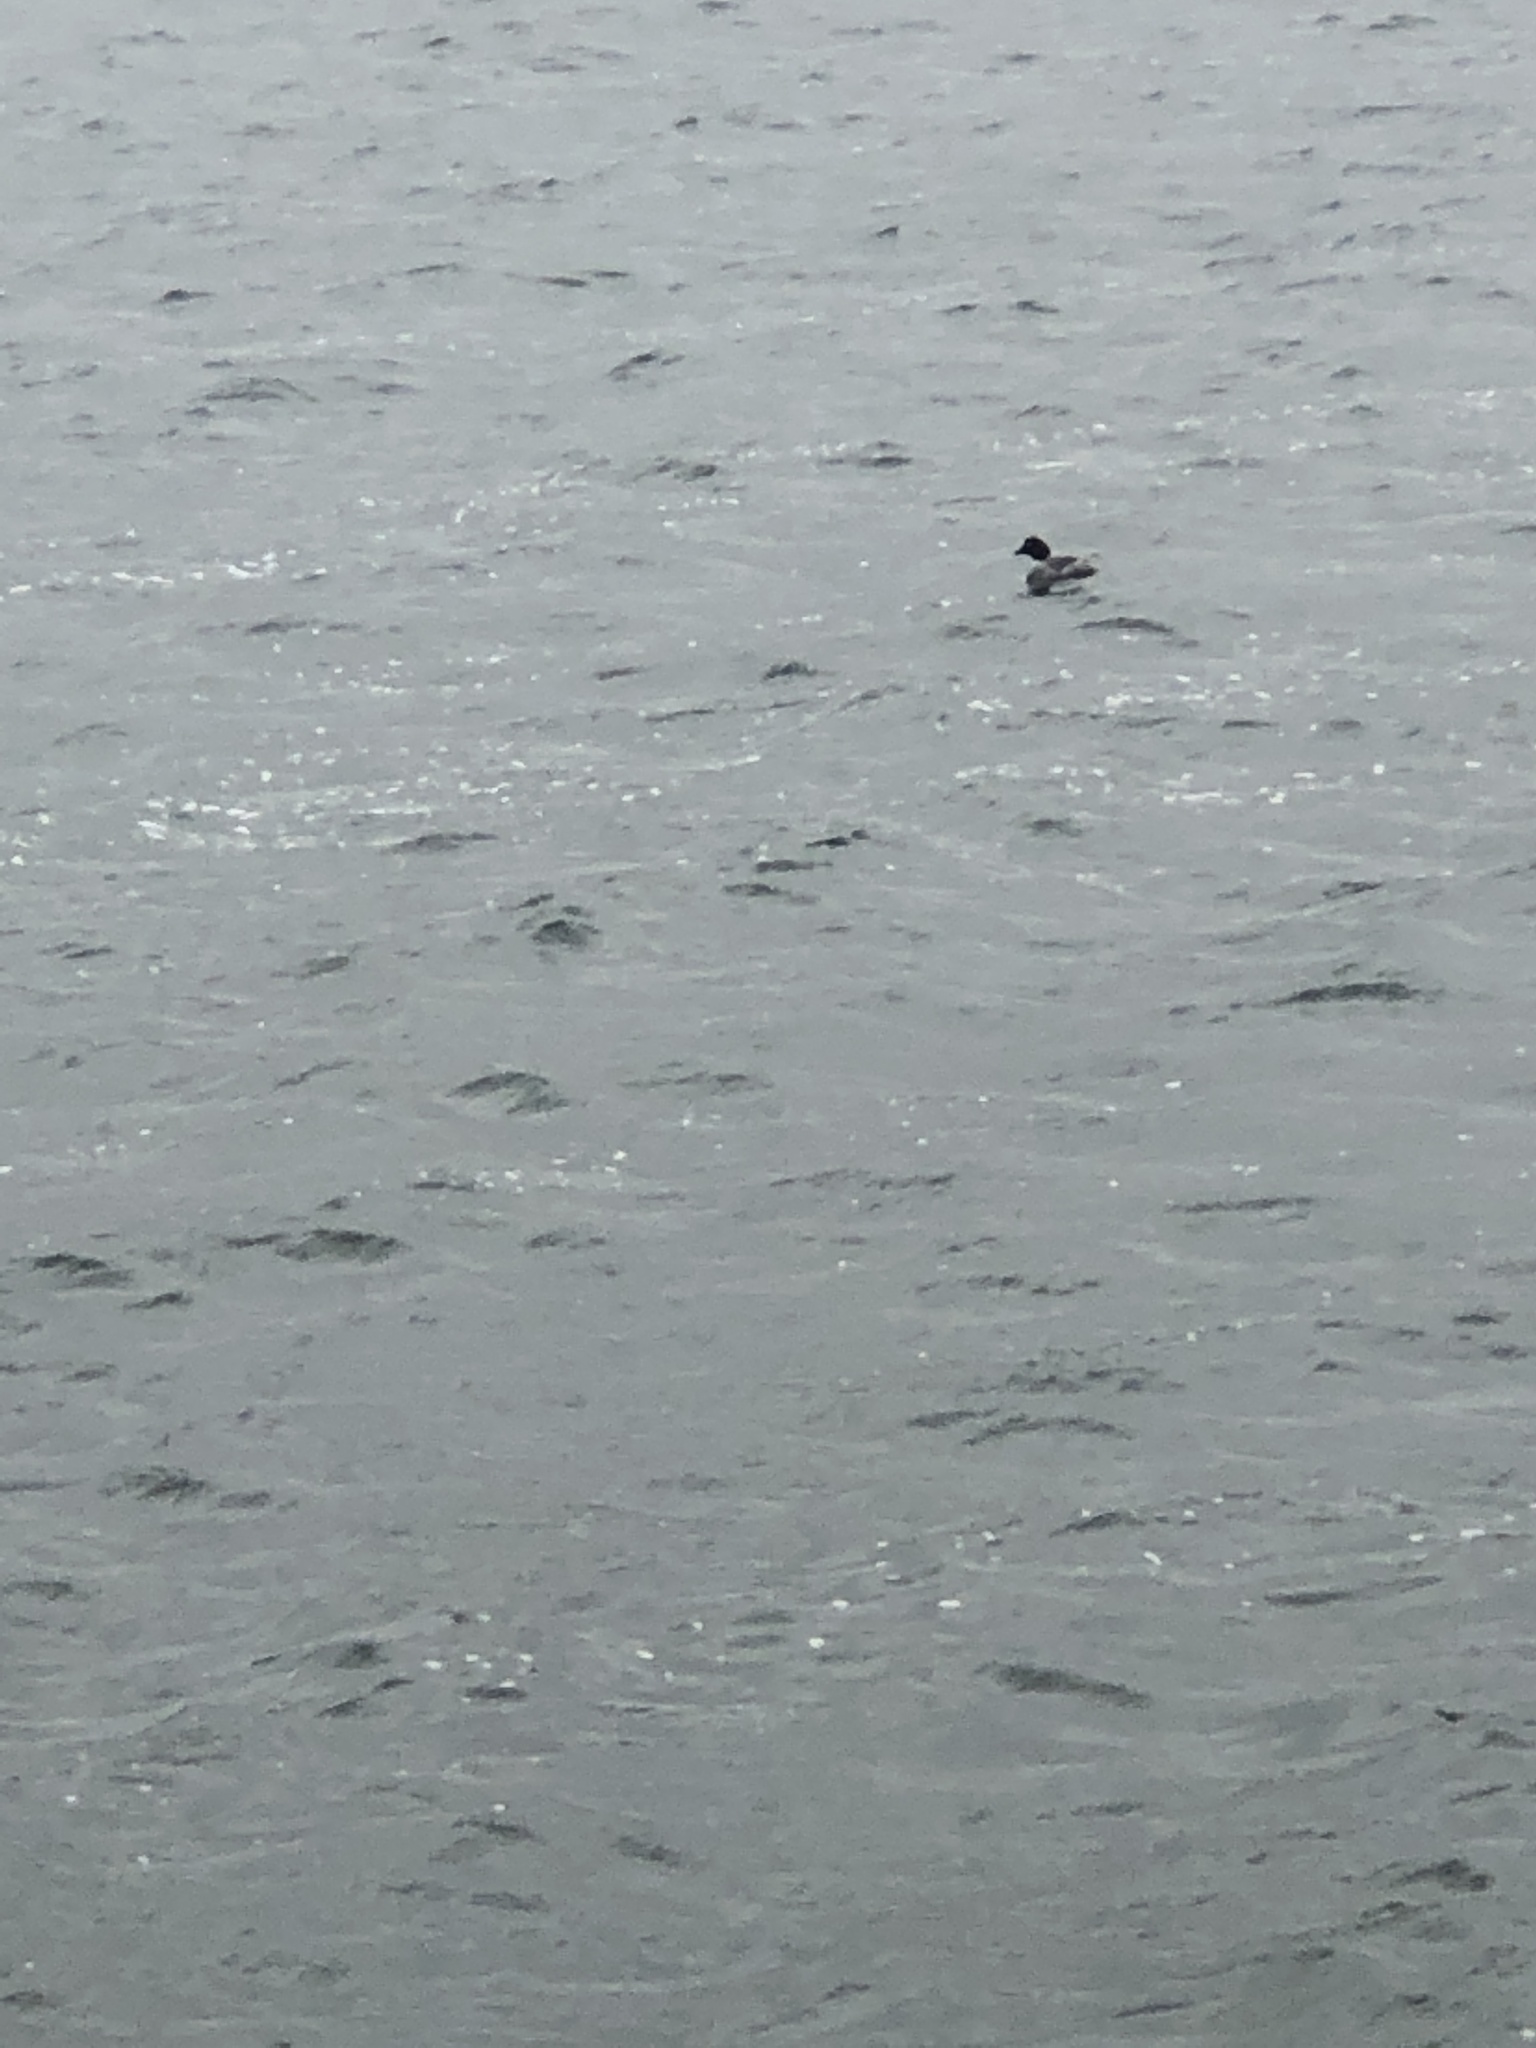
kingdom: Animalia
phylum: Chordata
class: Aves
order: Anseriformes
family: Anatidae
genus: Bucephala
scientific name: Bucephala clangula
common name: Common goldeneye
